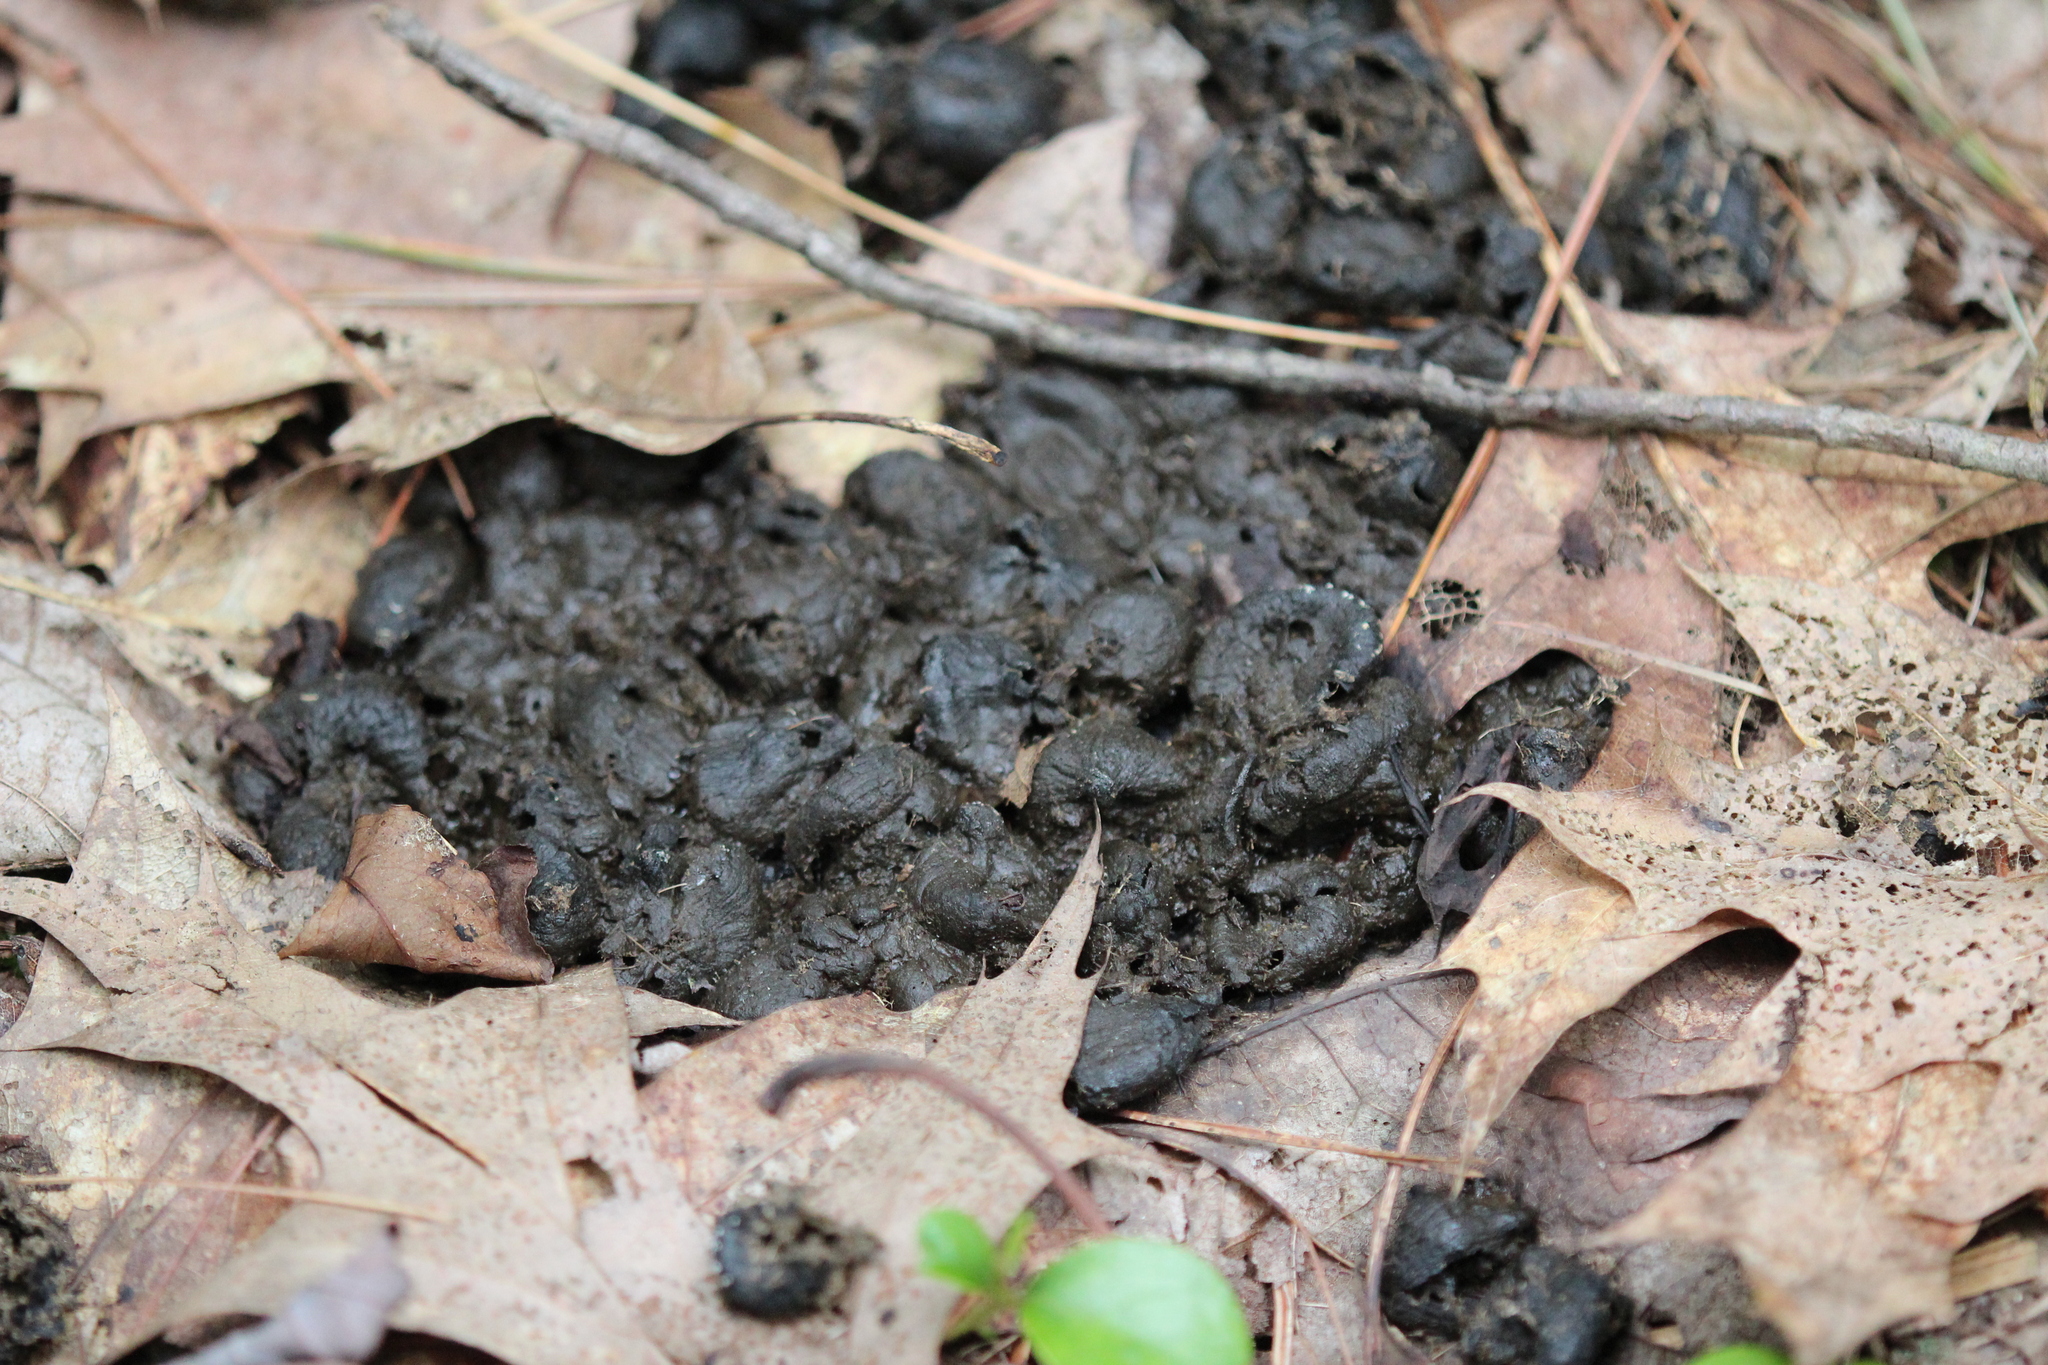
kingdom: Animalia
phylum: Chordata
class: Mammalia
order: Artiodactyla
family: Cervidae
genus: Odocoileus
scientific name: Odocoileus virginianus
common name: White-tailed deer
